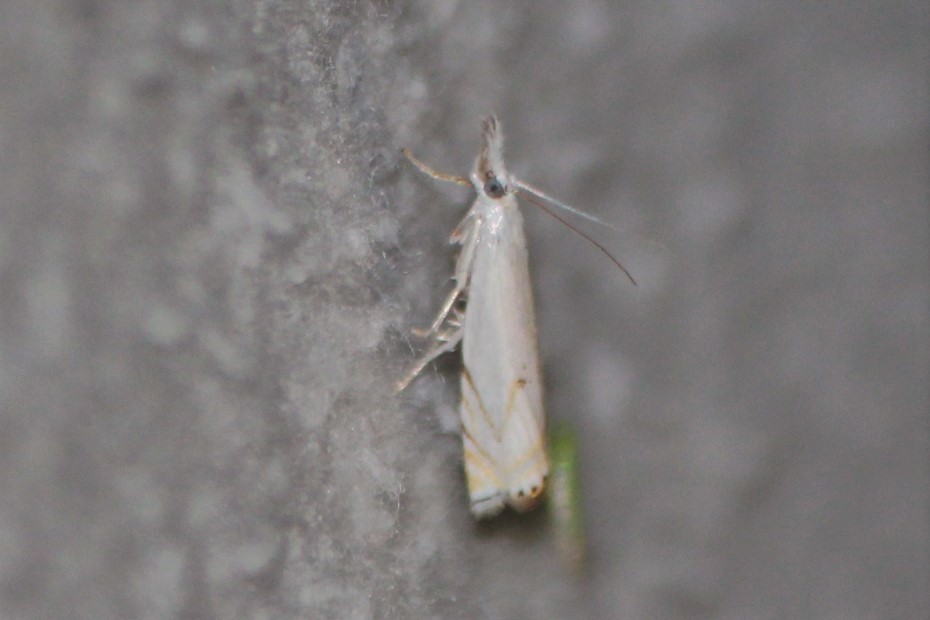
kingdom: Animalia
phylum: Arthropoda
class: Insecta
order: Lepidoptera
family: Crambidae
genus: Crambus
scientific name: Crambus albellus
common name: Small white grass-veneer
